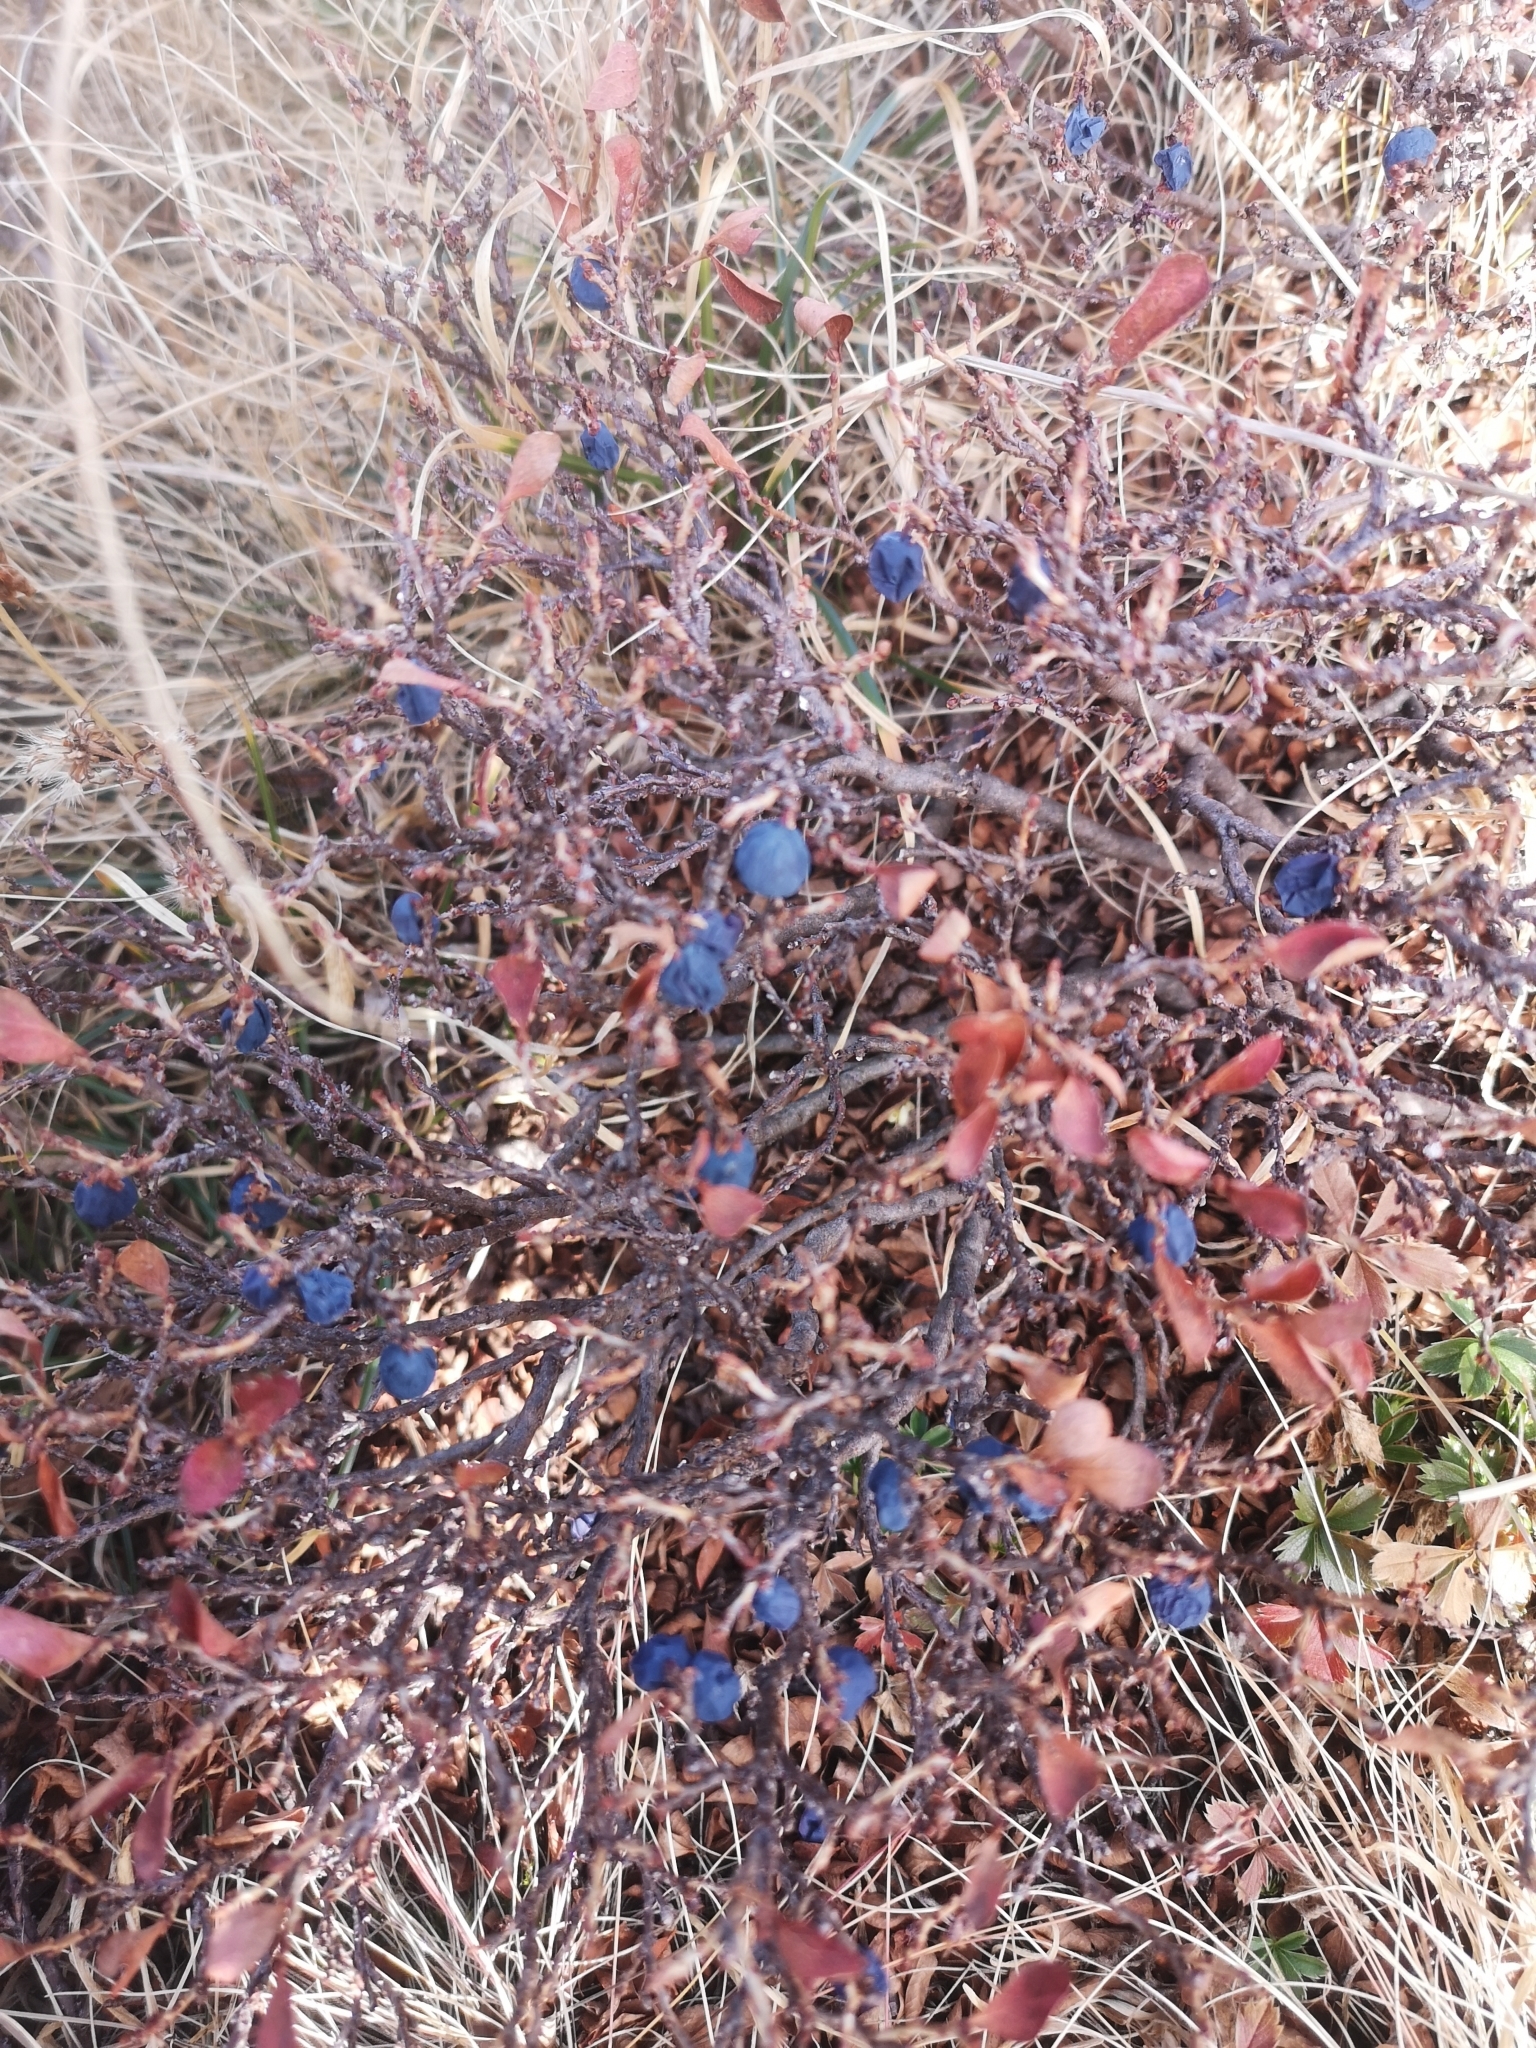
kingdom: Plantae
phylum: Tracheophyta
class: Magnoliopsida
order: Ericales
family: Ericaceae
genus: Vaccinium
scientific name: Vaccinium uliginosum
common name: Bog bilberry
